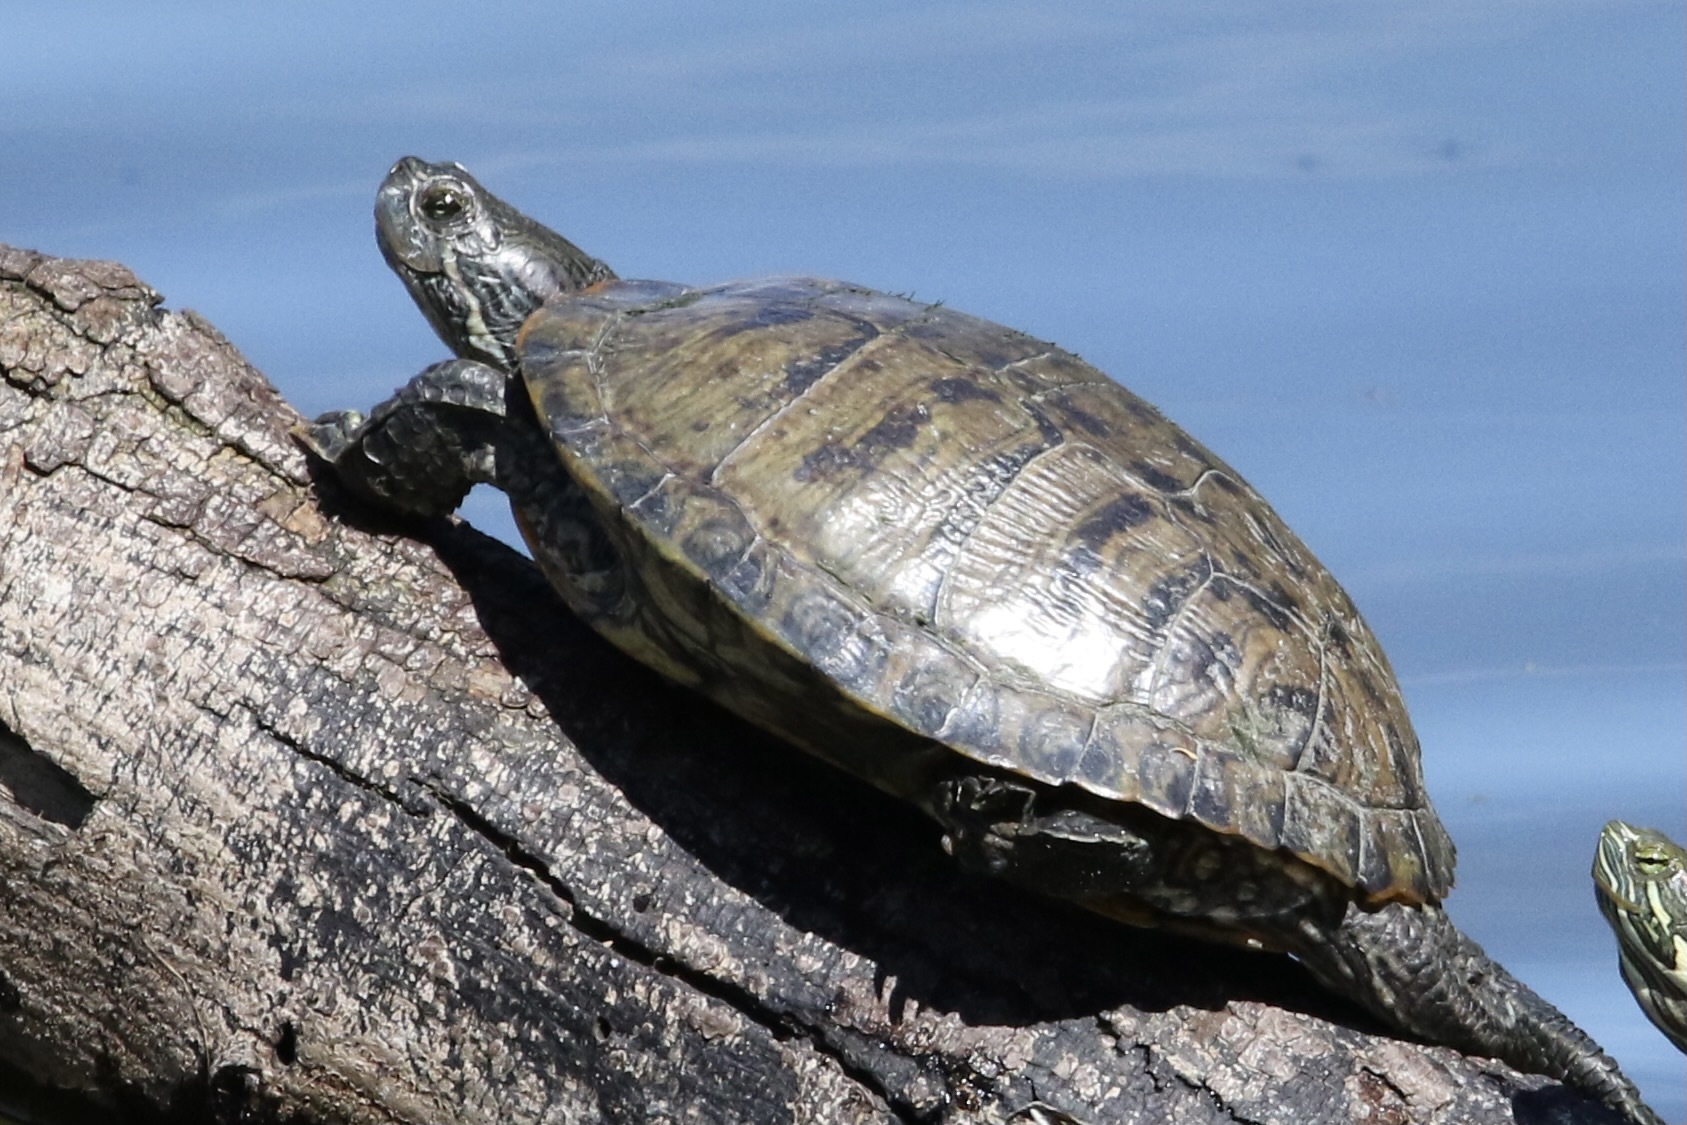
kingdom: Animalia
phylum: Chordata
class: Testudines
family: Emydidae
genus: Trachemys
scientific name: Trachemys scripta
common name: Slider
